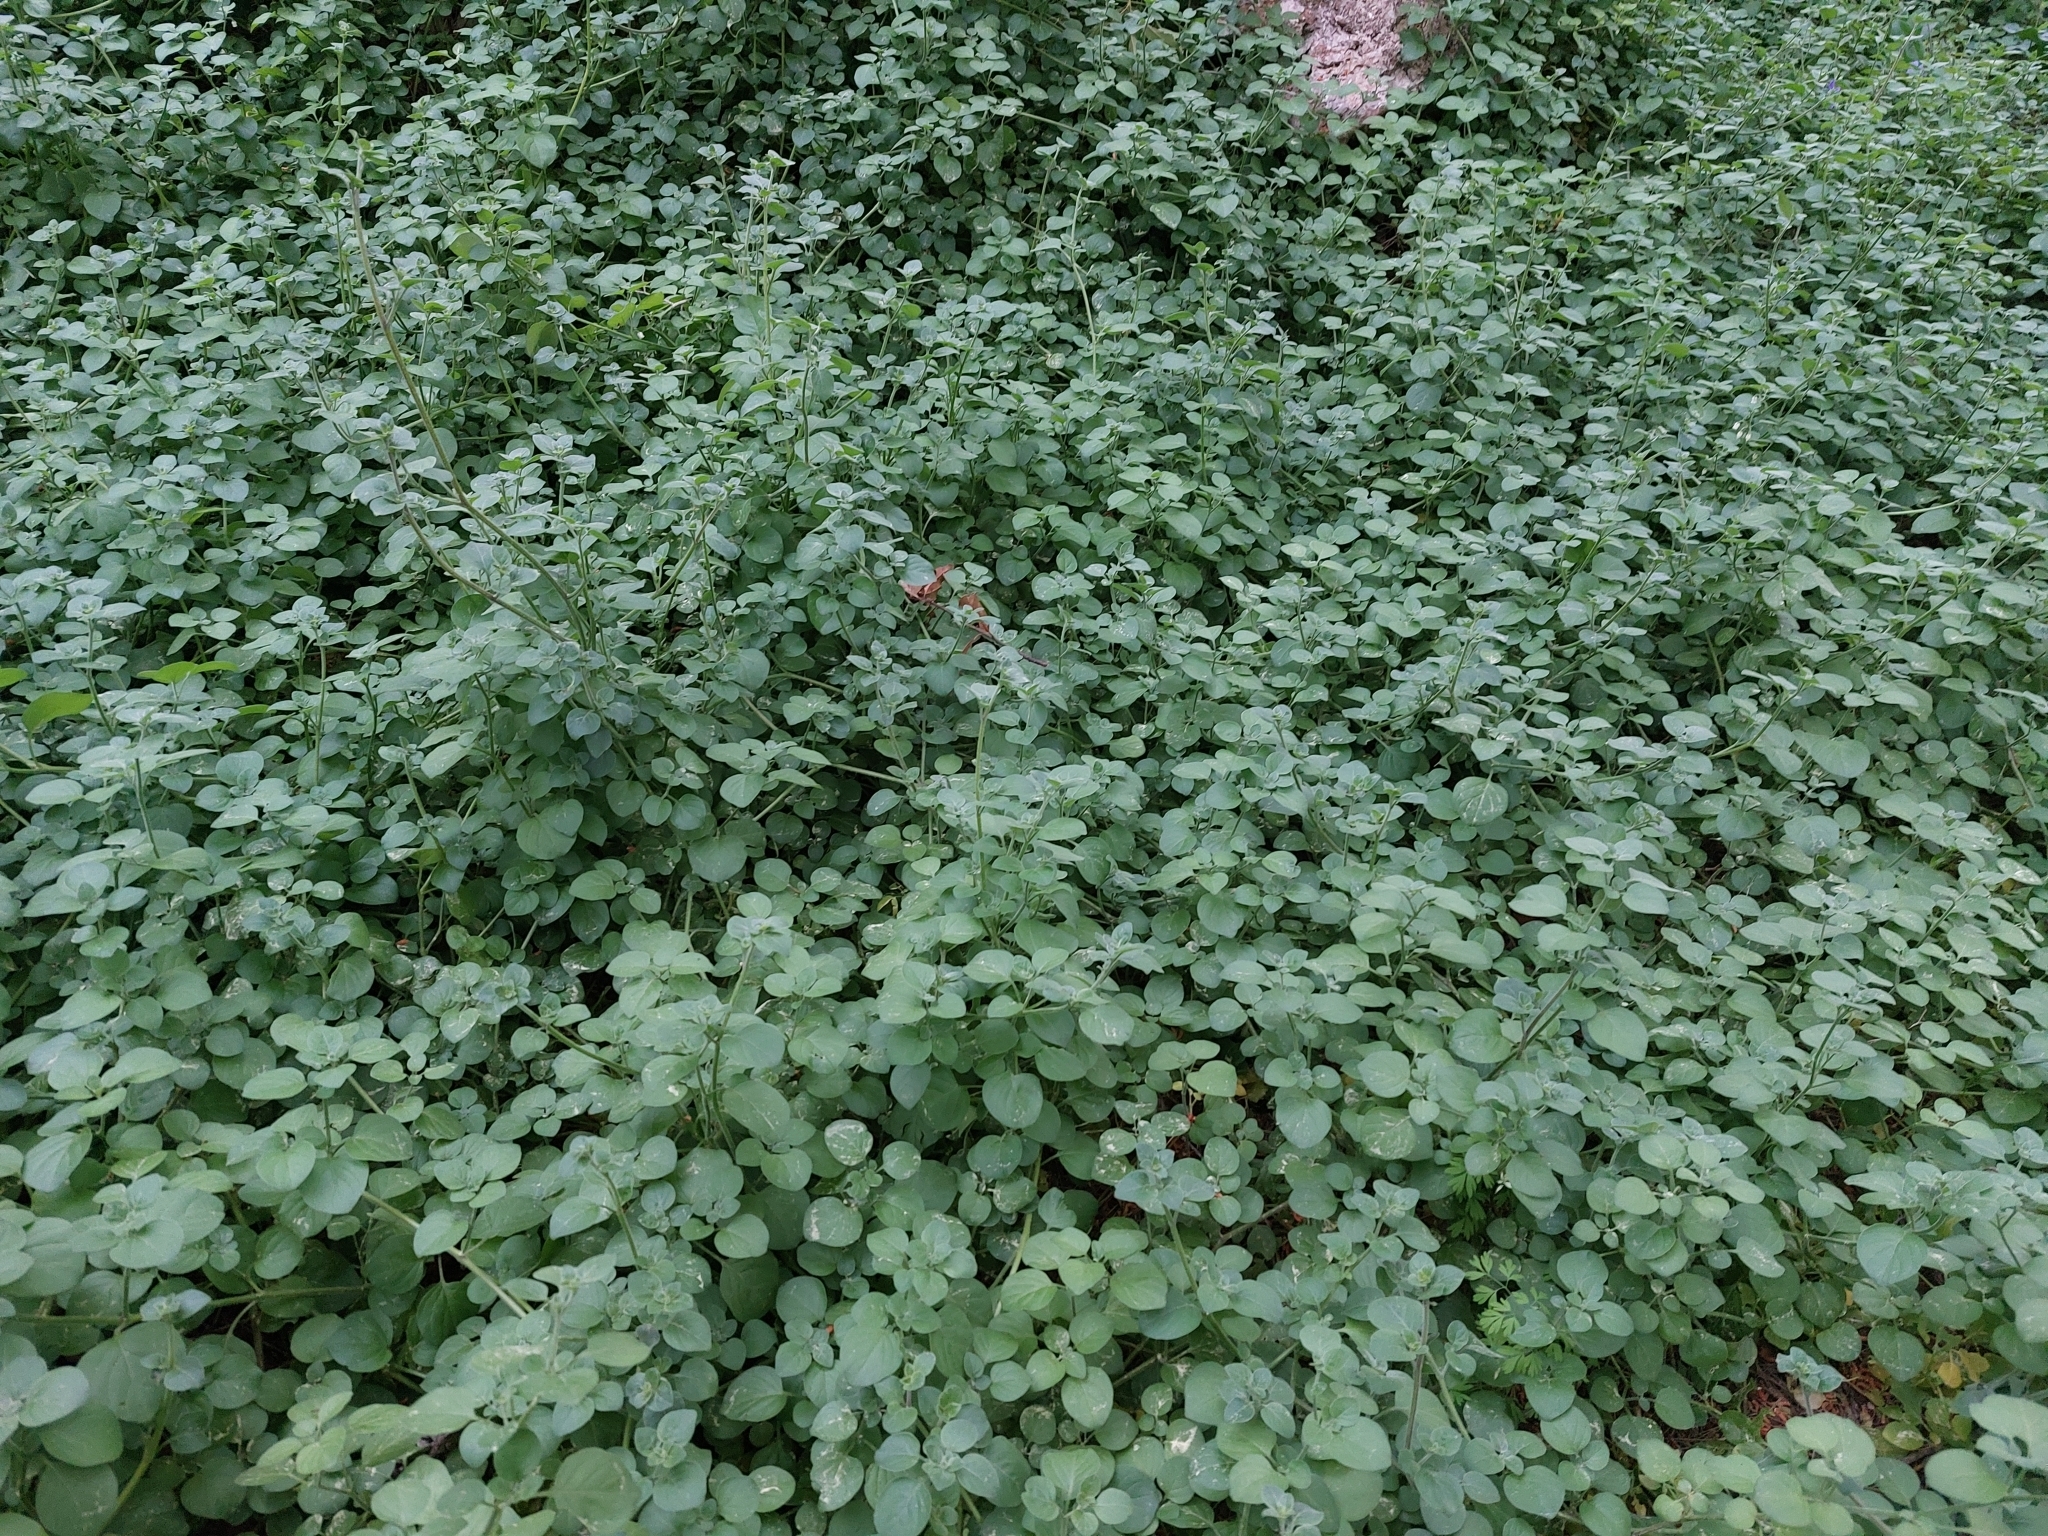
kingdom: Plantae
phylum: Tracheophyta
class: Magnoliopsida
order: Solanales
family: Solanaceae
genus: Salpichroa
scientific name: Salpichroa origanifolia
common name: Lily-of-the-valley-vine
